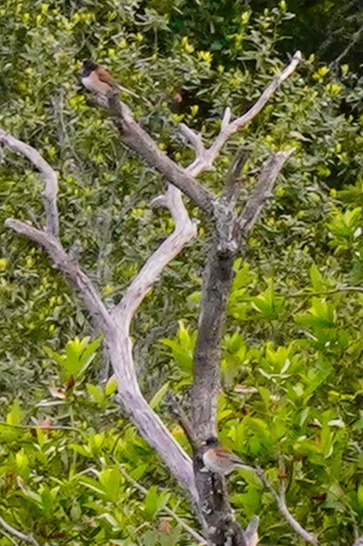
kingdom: Animalia
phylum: Chordata
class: Aves
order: Passeriformes
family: Passerellidae
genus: Junco
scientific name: Junco hyemalis
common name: Dark-eyed junco
